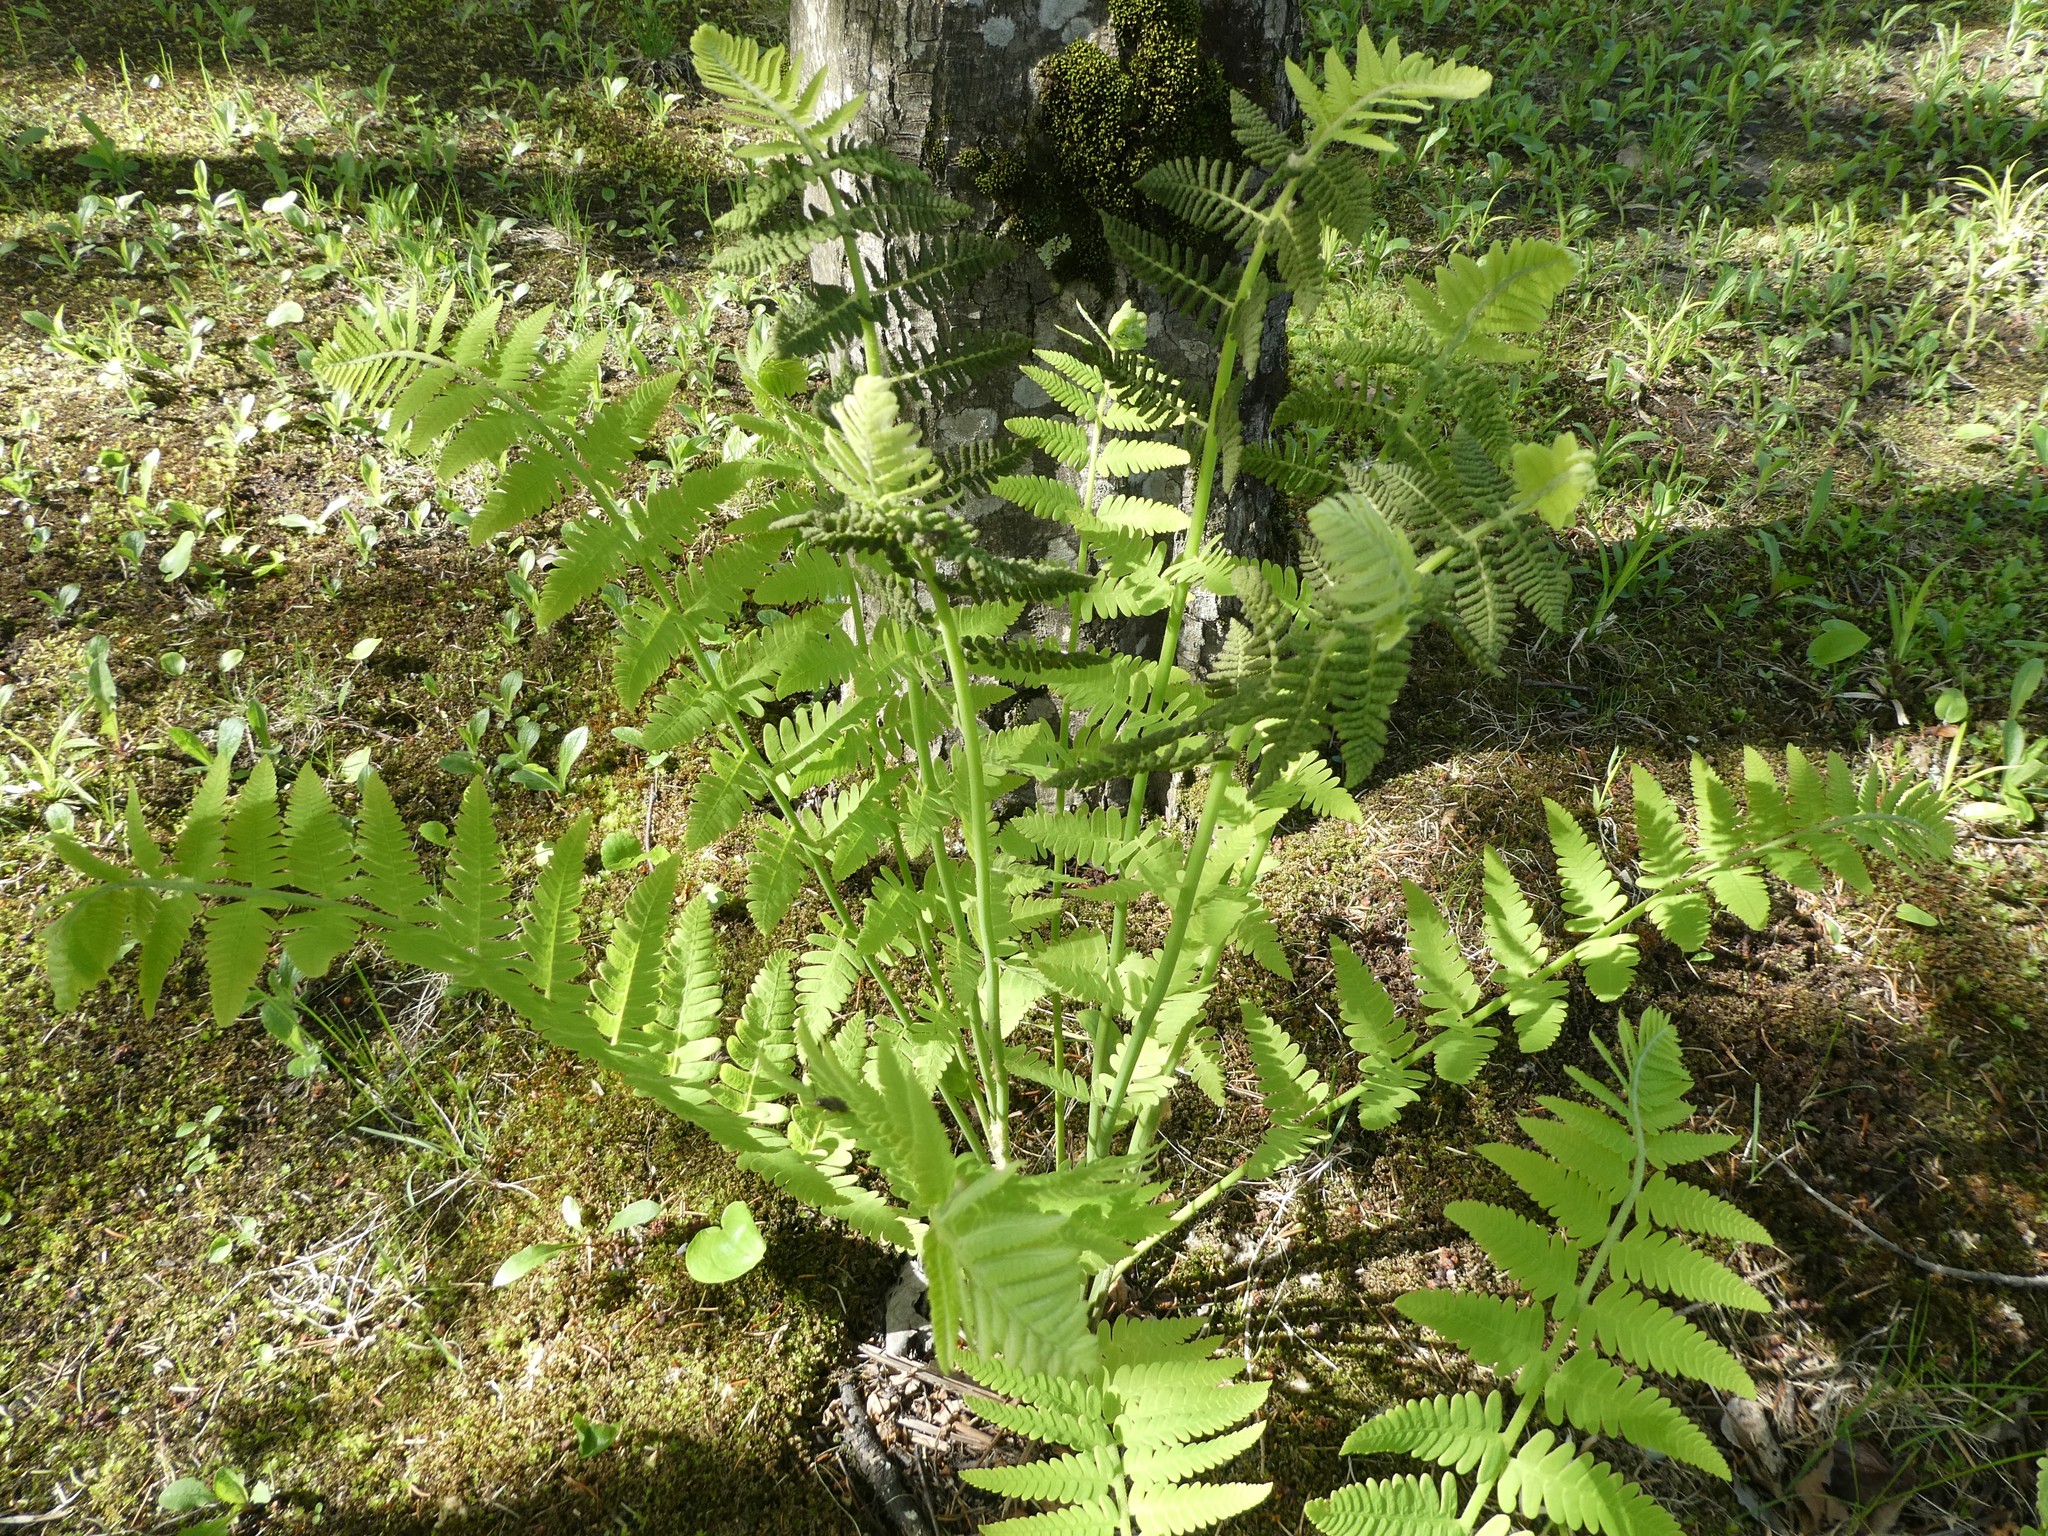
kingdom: Plantae
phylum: Tracheophyta
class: Polypodiopsida
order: Osmundales
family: Osmundaceae
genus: Claytosmunda
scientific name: Claytosmunda claytoniana
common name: Clayton's fern
